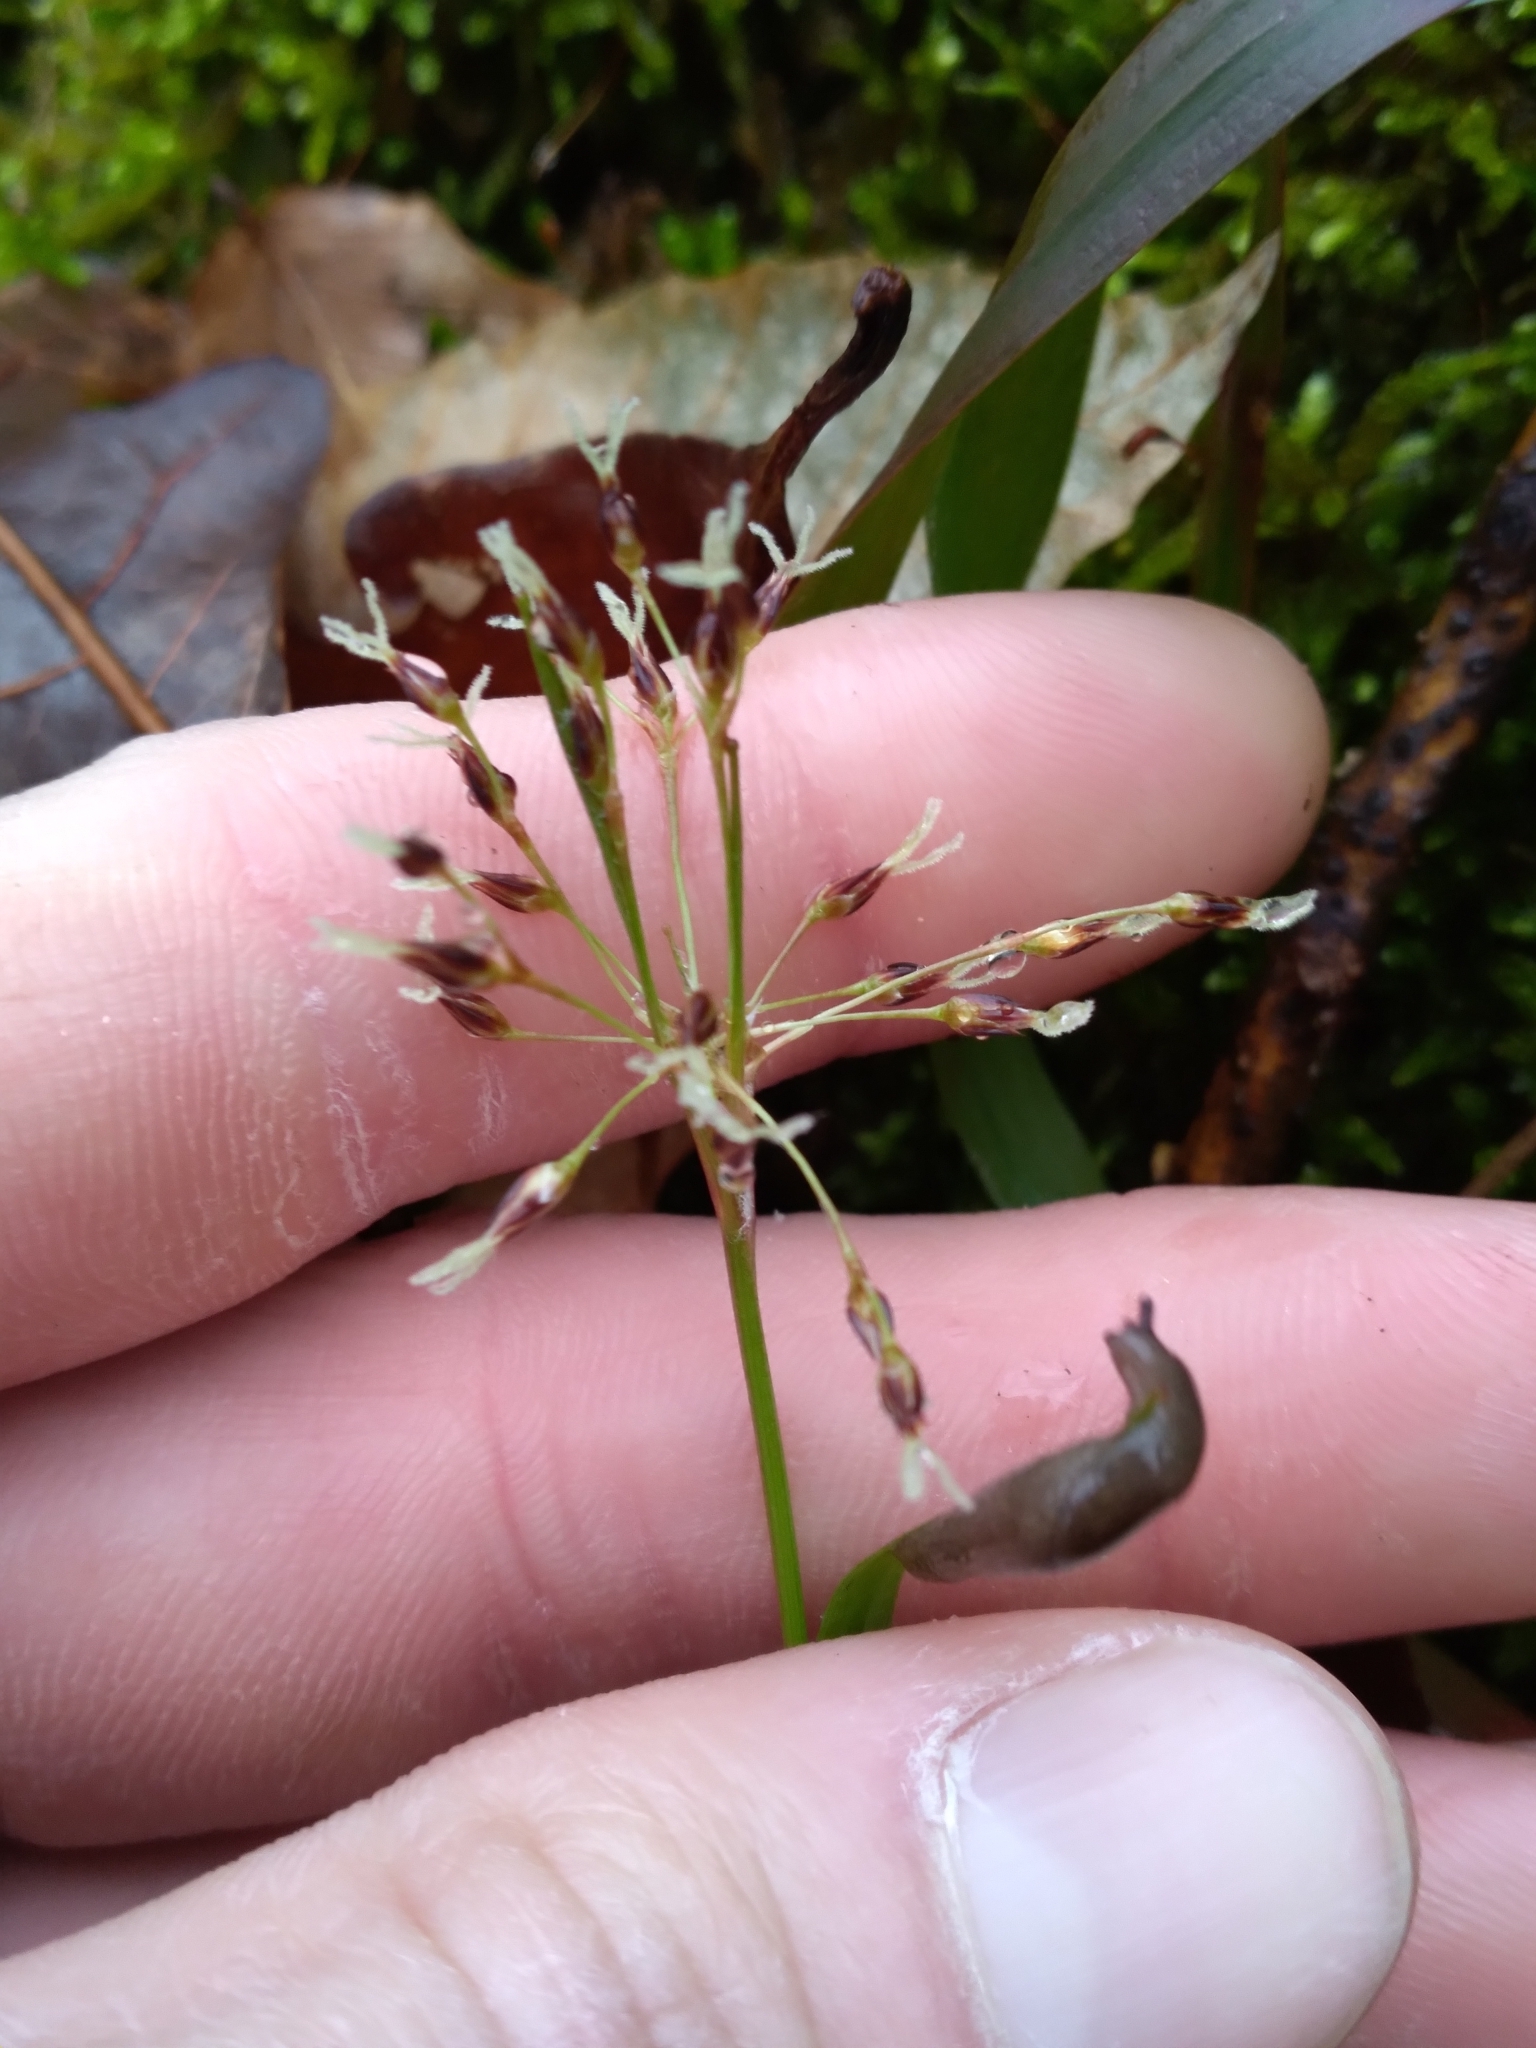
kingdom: Plantae
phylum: Tracheophyta
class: Liliopsida
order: Poales
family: Juncaceae
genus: Luzula
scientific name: Luzula acuminata
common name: Hairy woodrush
